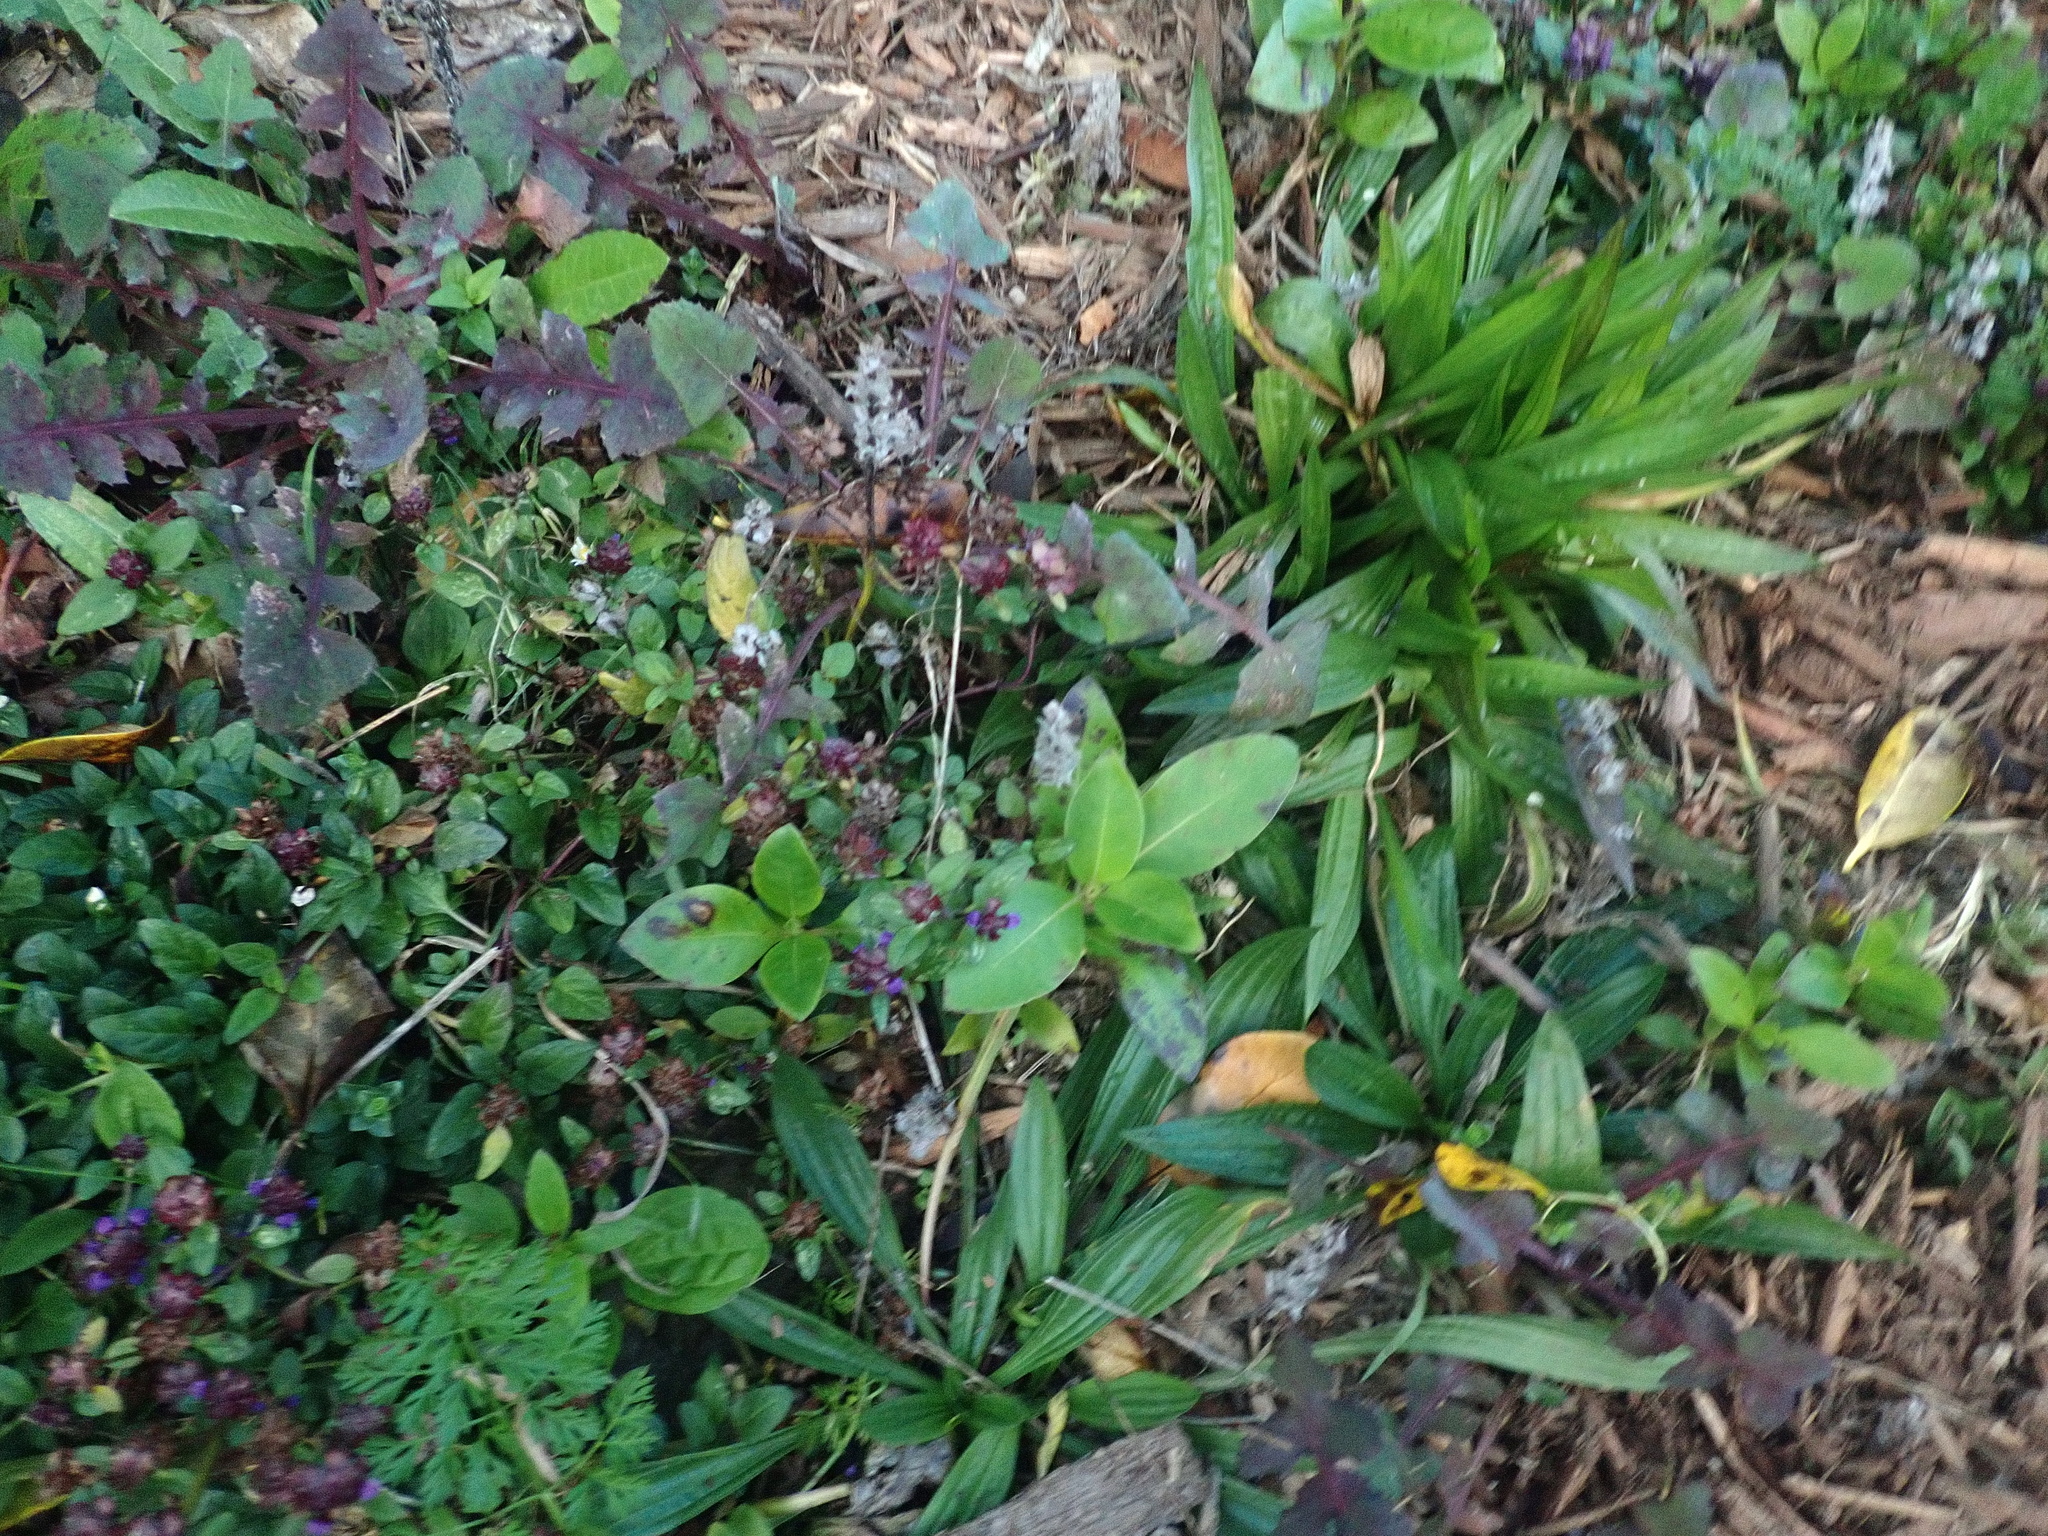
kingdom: Plantae
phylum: Tracheophyta
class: Magnoliopsida
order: Gentianales
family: Rubiaceae
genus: Coprosma
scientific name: Coprosma robusta
